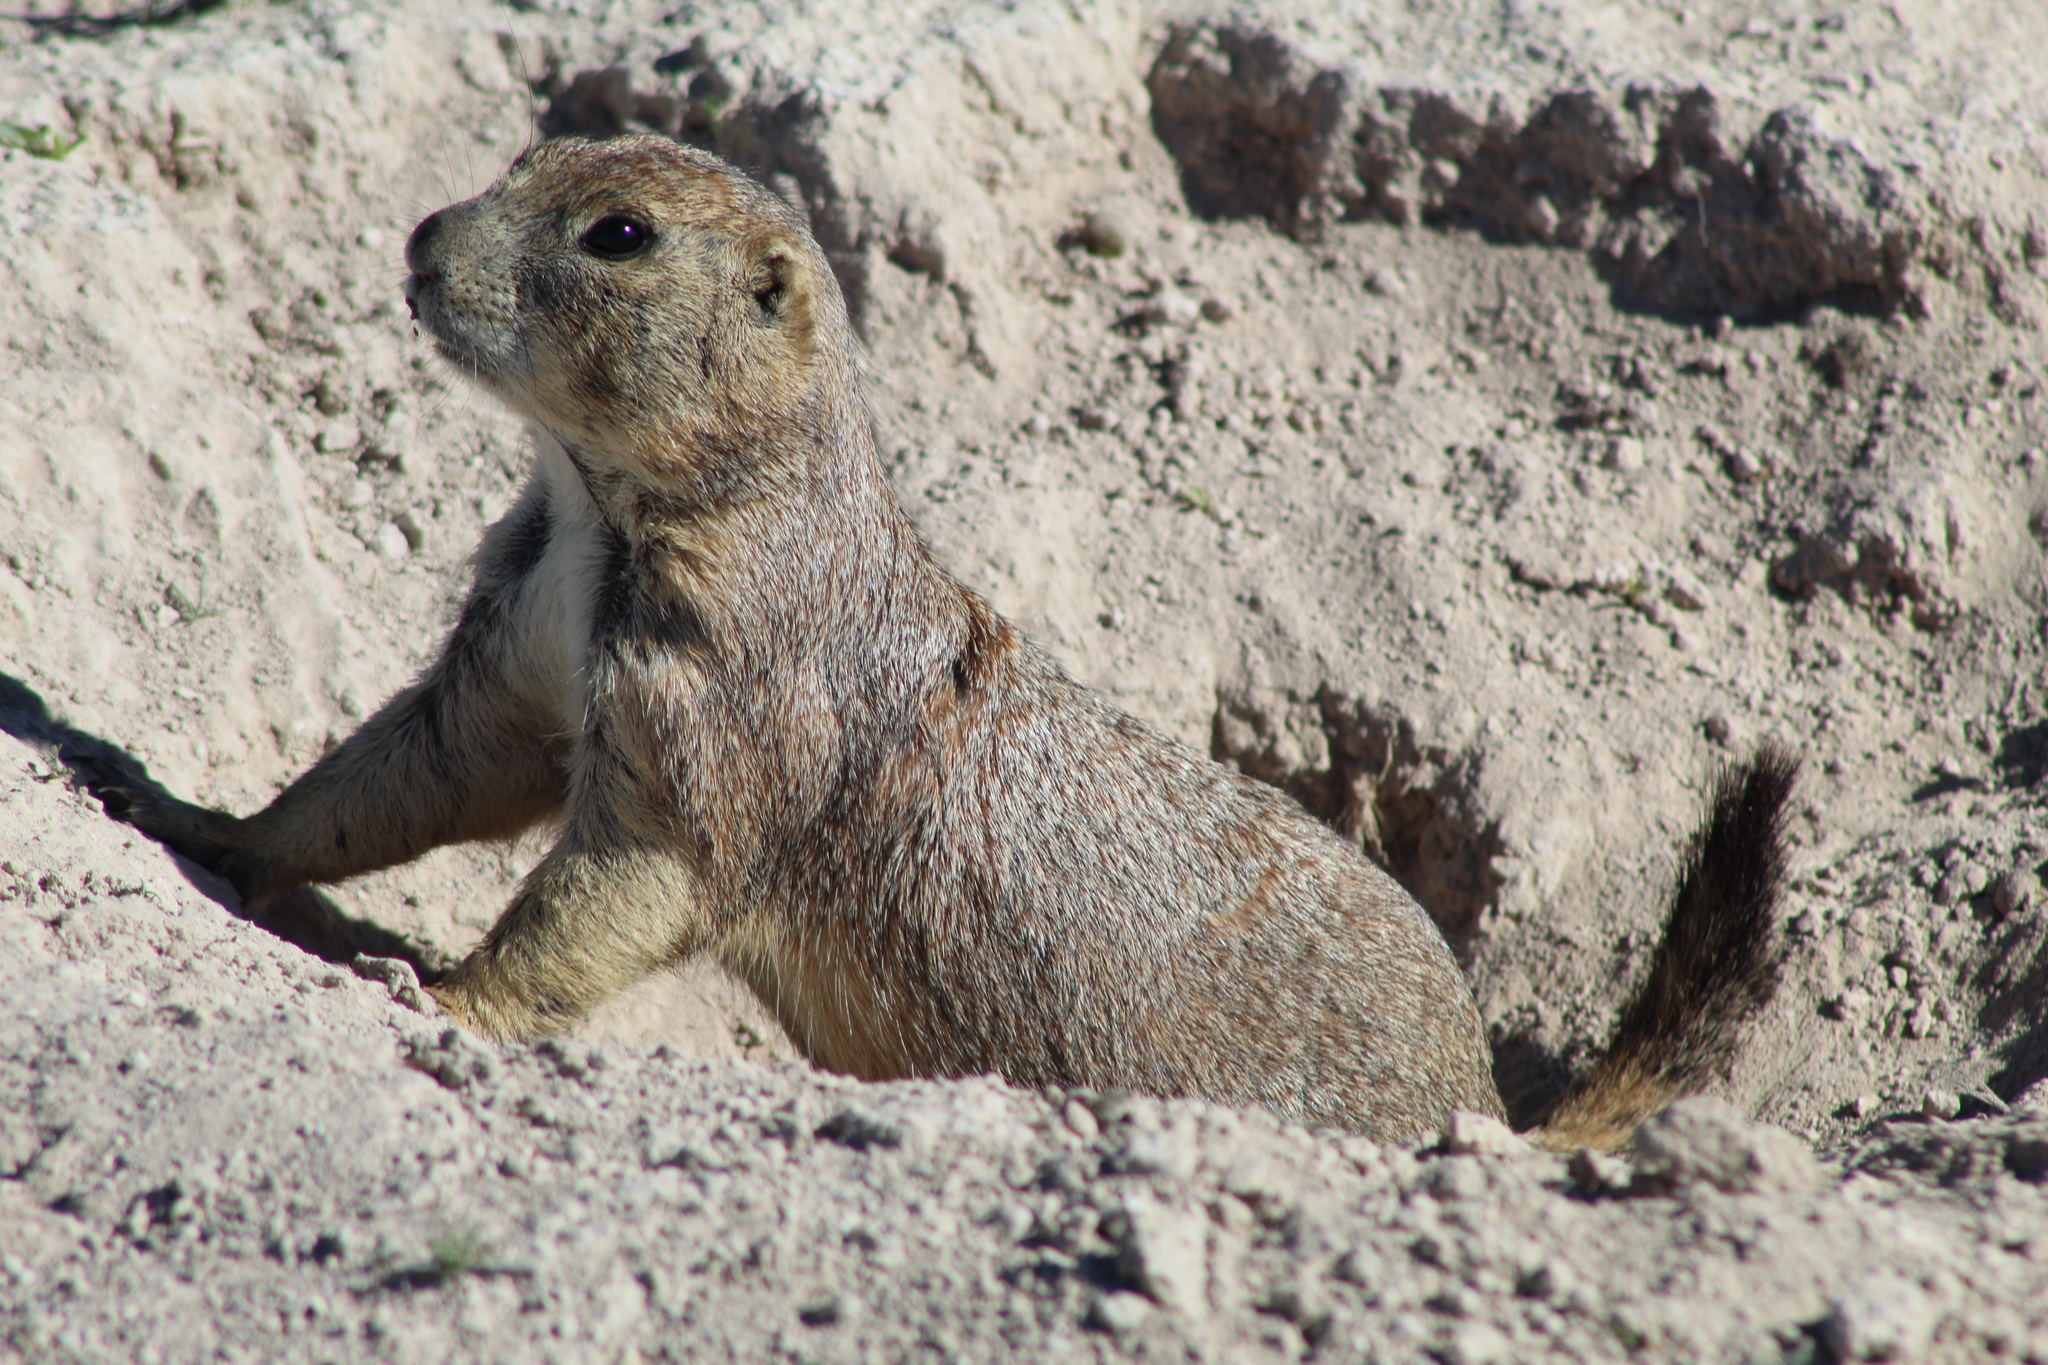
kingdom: Animalia
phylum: Chordata
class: Mammalia
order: Rodentia
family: Sciuridae
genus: Cynomys
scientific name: Cynomys mexicanus
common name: Mexican prairie dog
